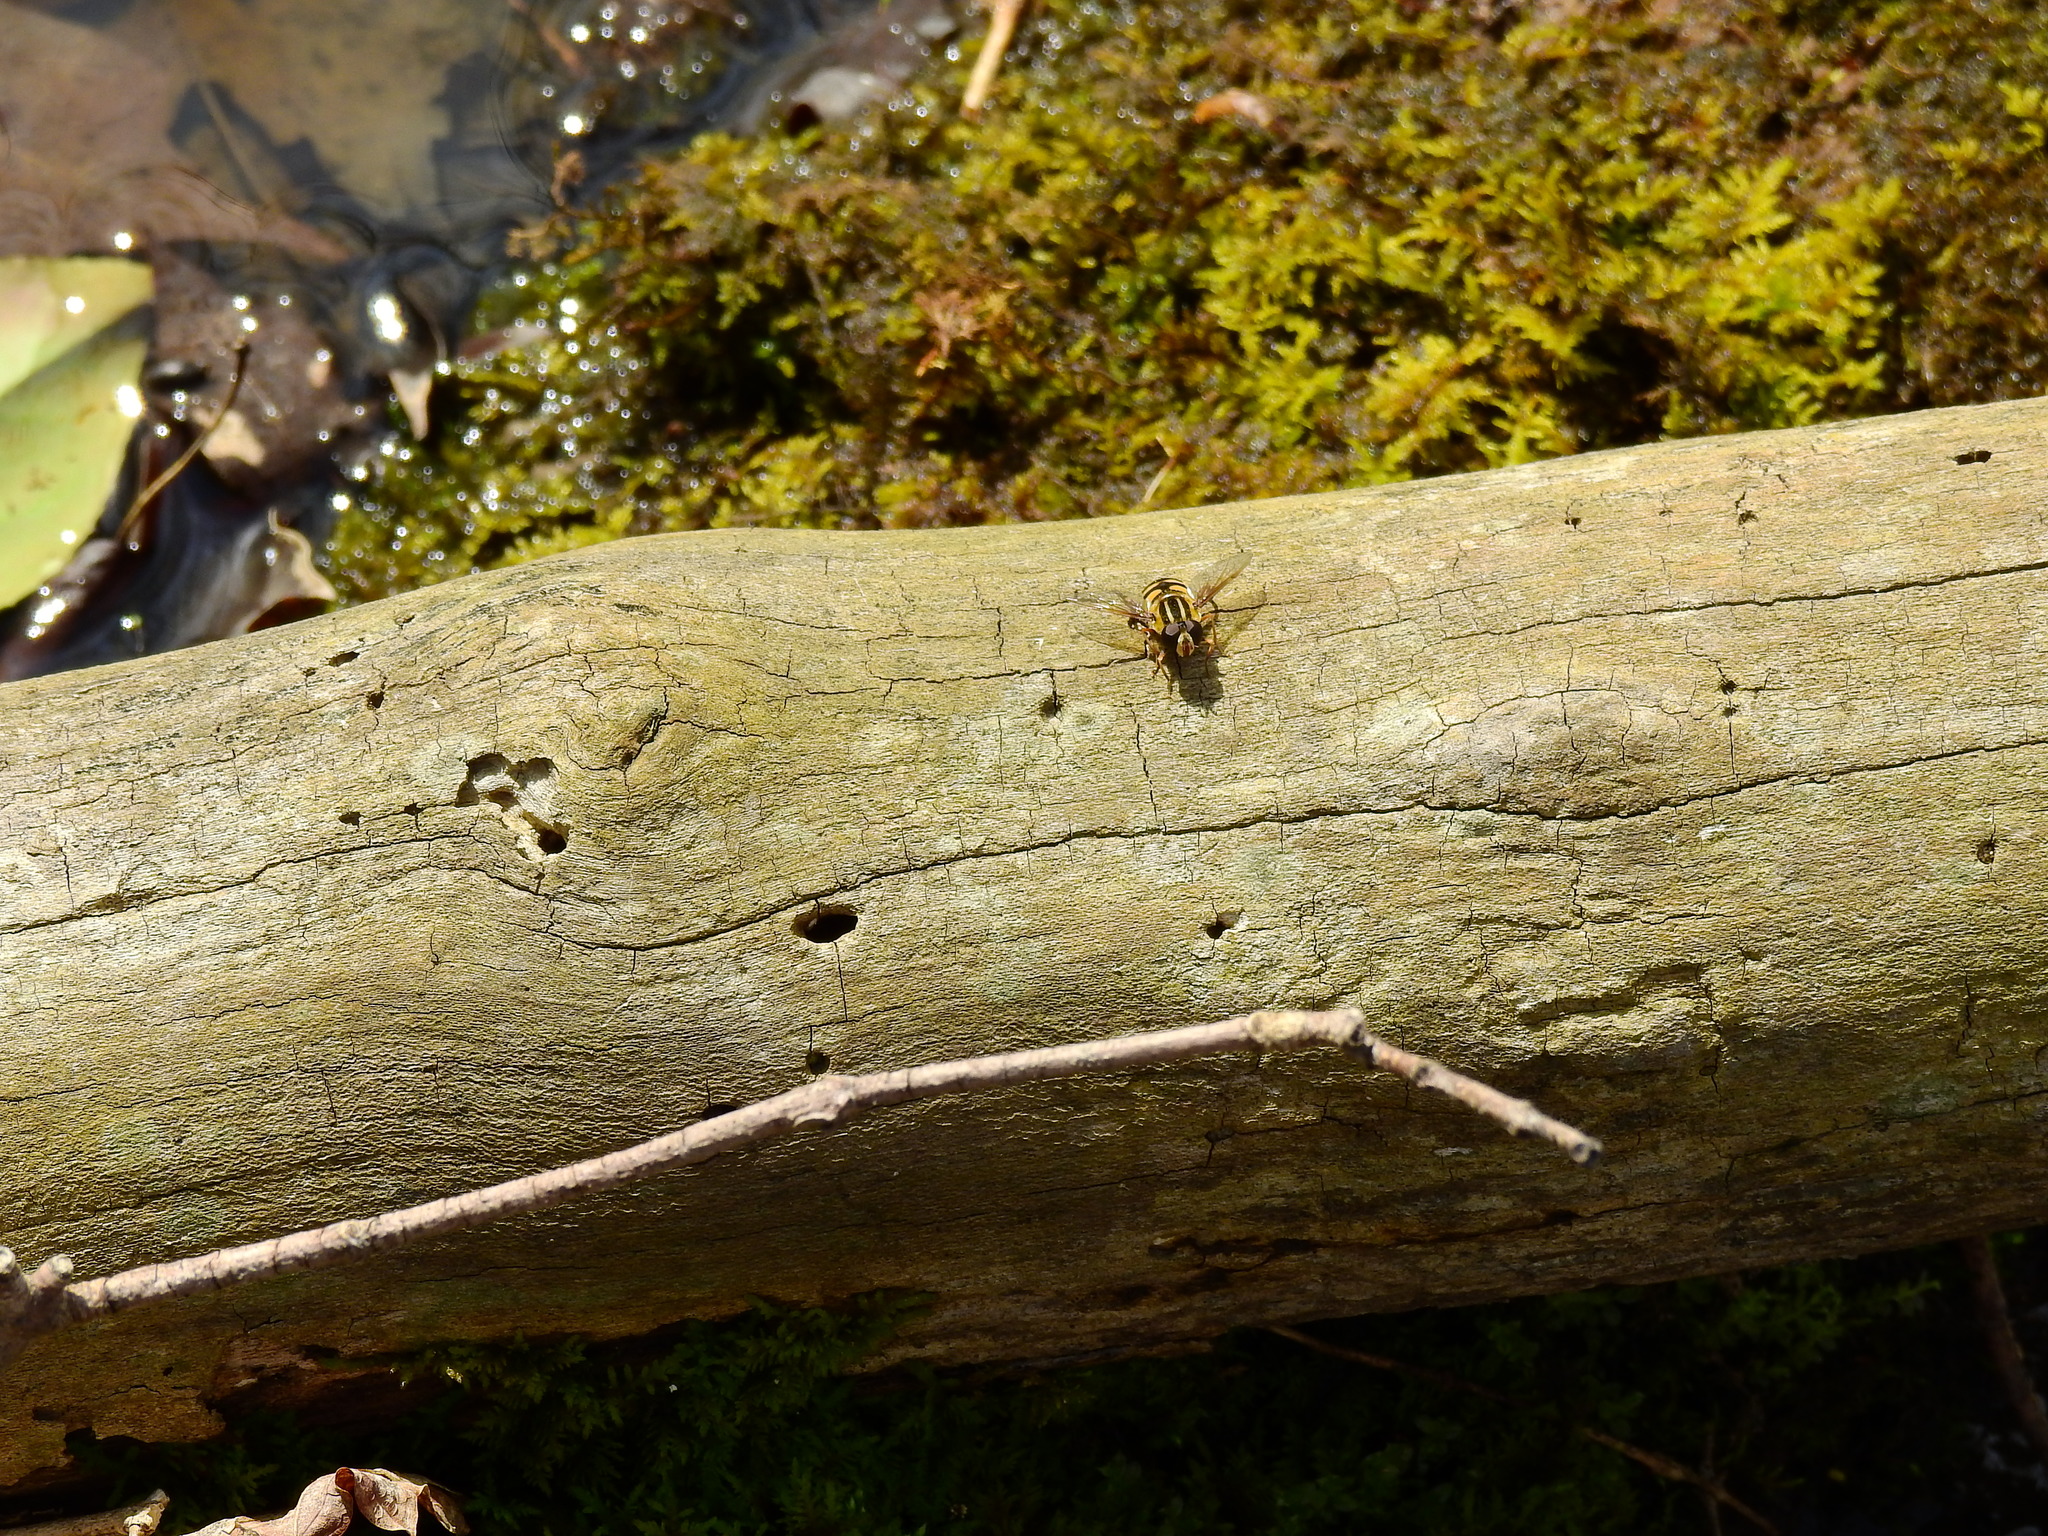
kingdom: Animalia
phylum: Arthropoda
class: Insecta
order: Diptera
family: Syrphidae
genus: Helophilus
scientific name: Helophilus fasciatus
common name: Narrow-headed marsh fly
